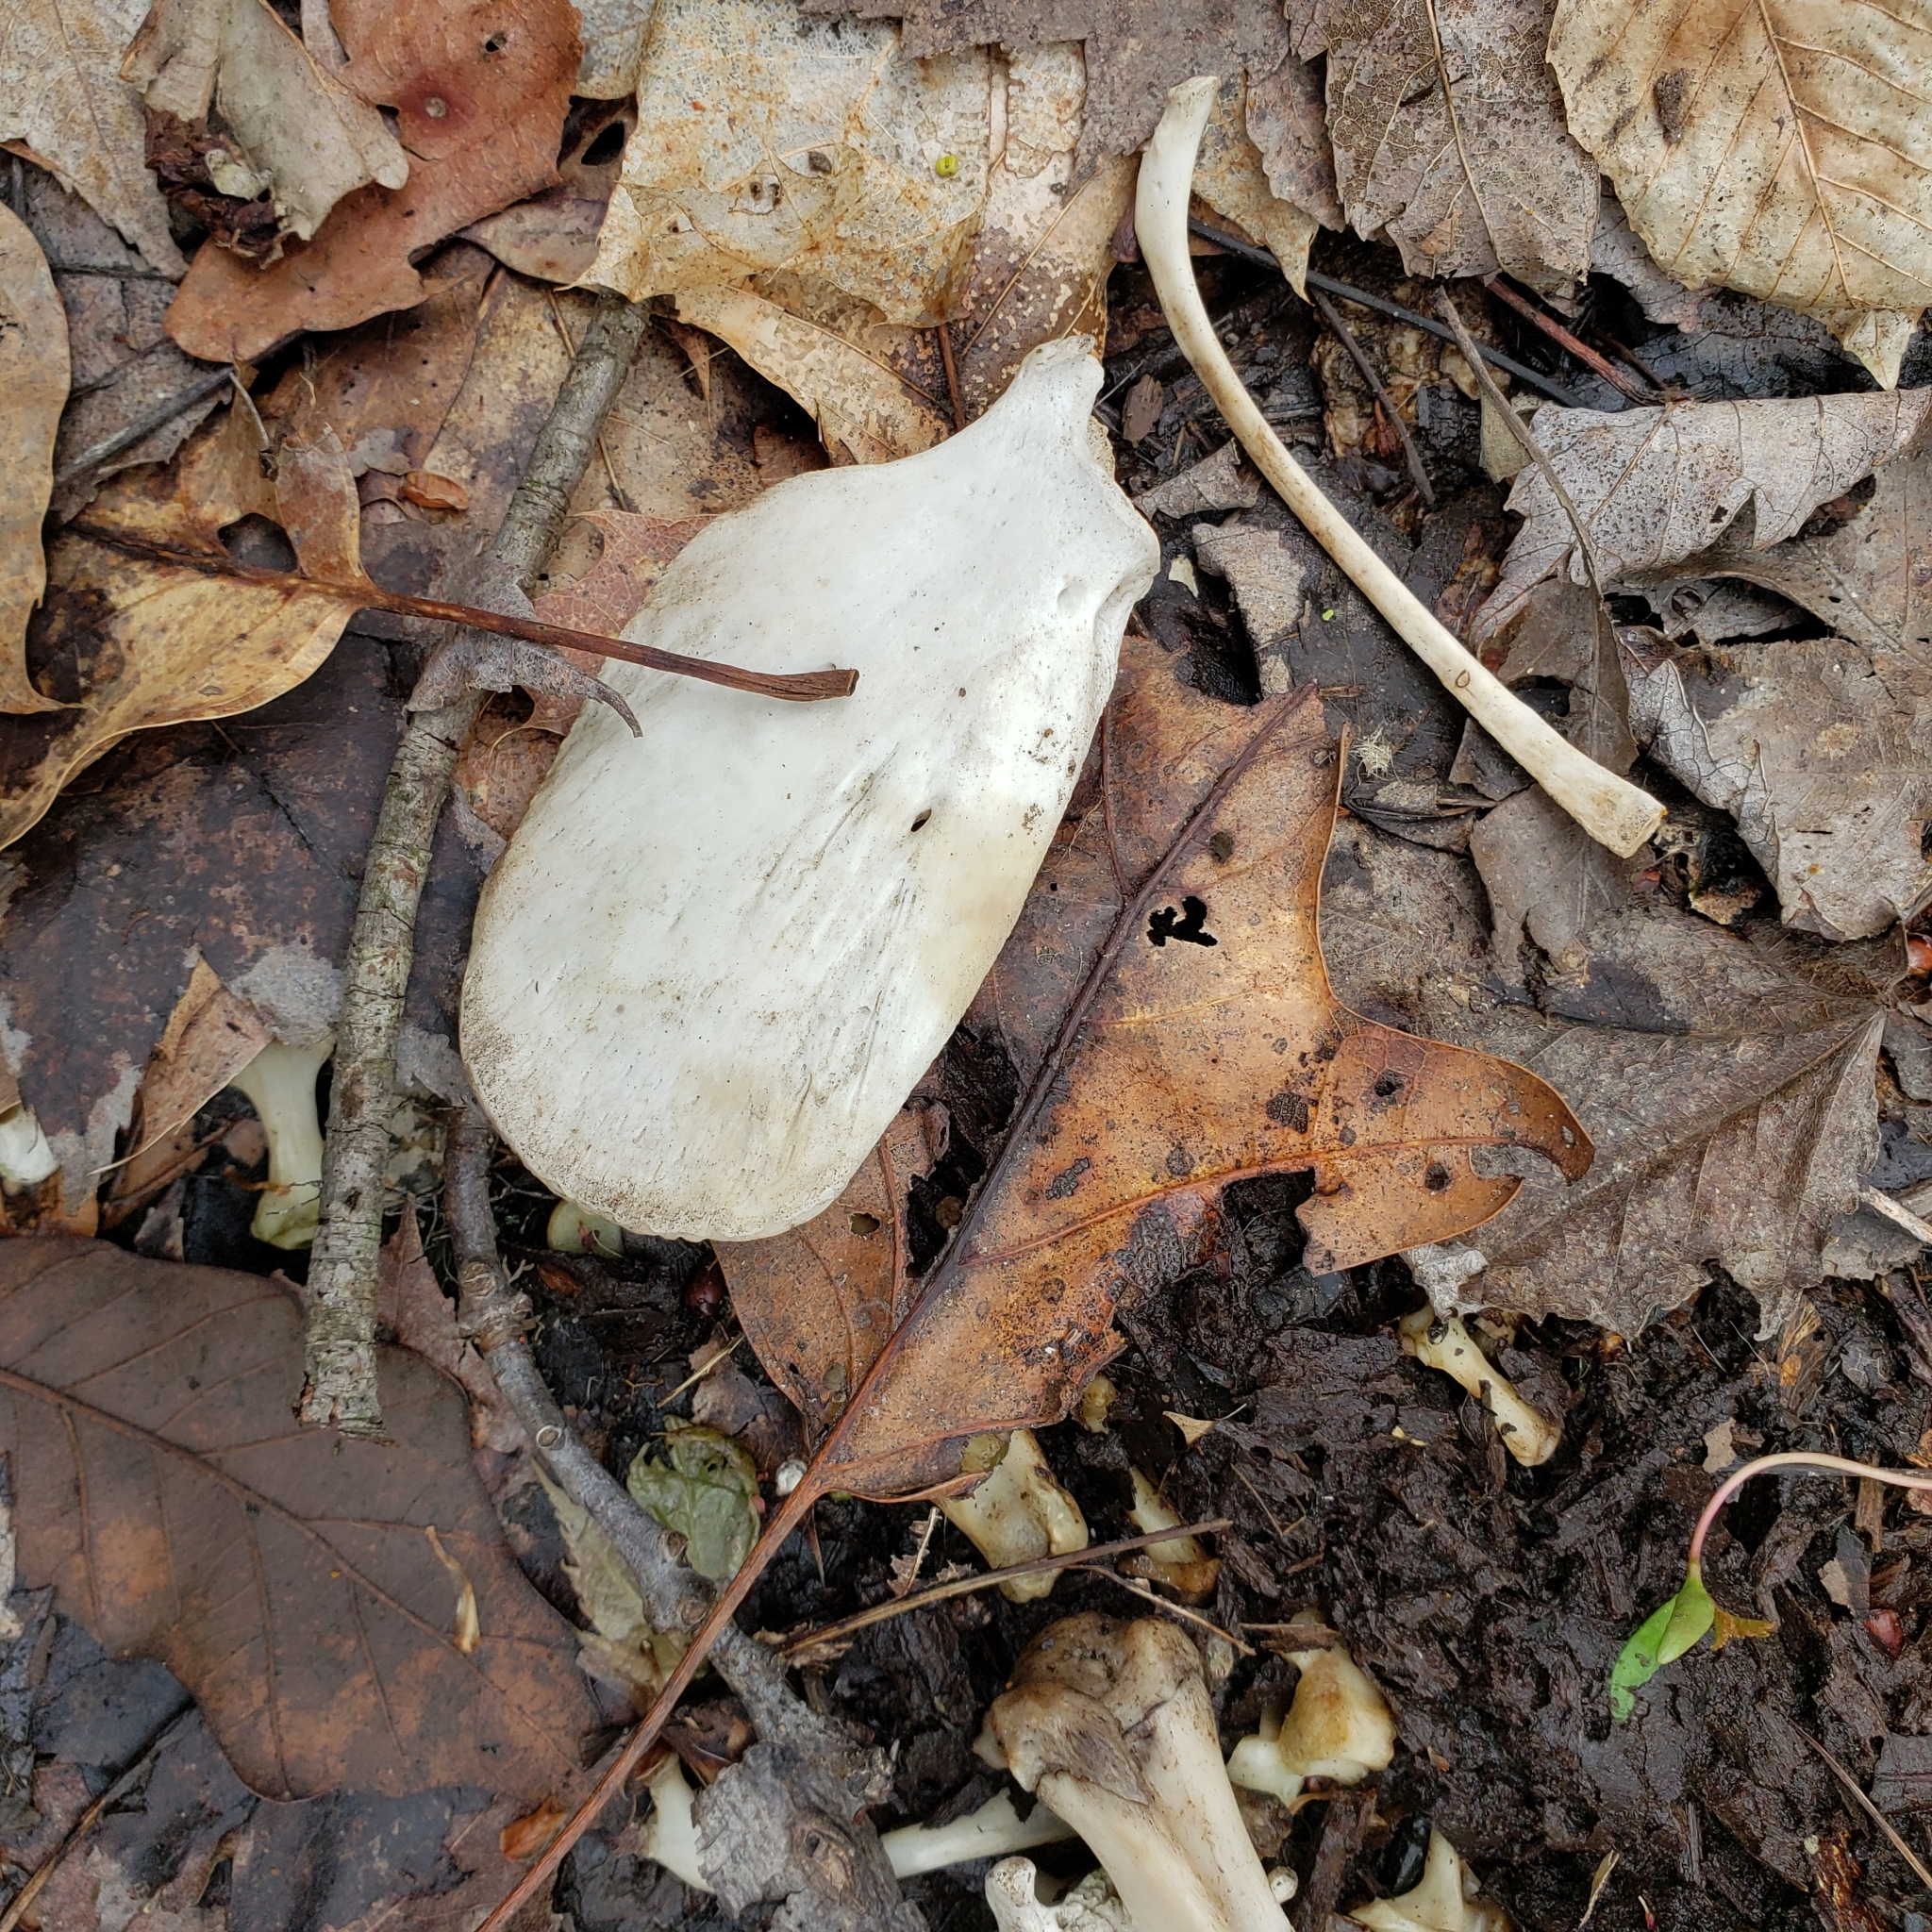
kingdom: Animalia
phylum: Chordata
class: Mammalia
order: Didelphimorphia
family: Didelphidae
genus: Didelphis
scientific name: Didelphis virginiana
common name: Virginia opossum
